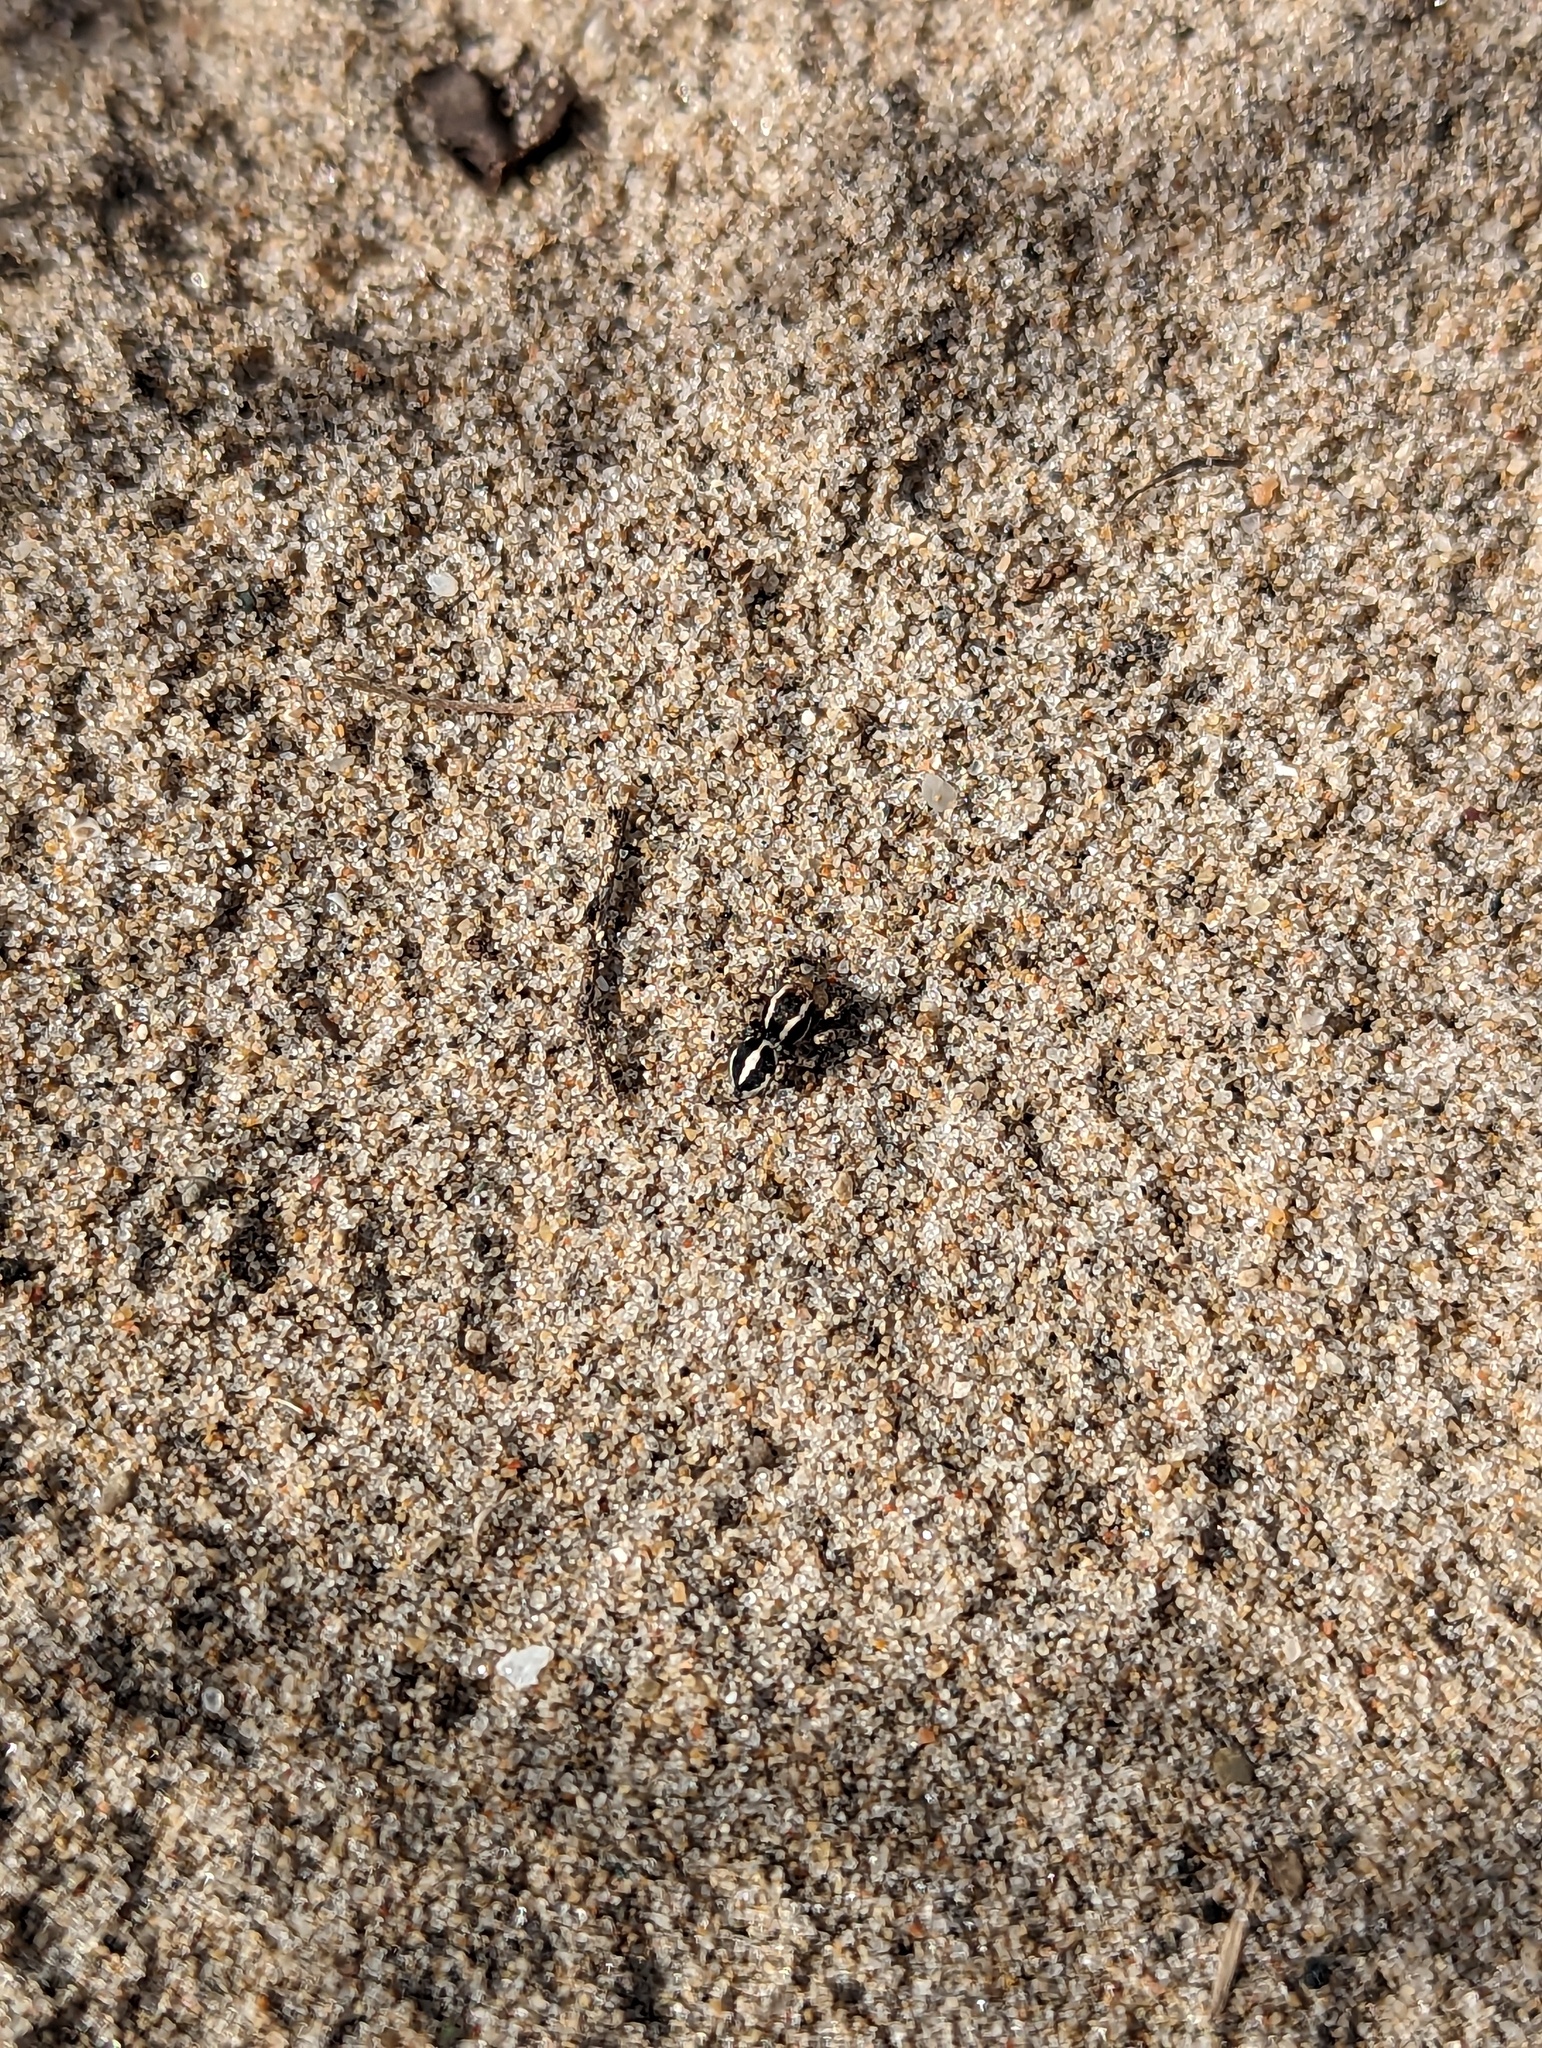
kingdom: Animalia
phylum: Arthropoda
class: Arachnida
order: Araneae
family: Salticidae
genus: Habronattus
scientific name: Habronattus cognatus
